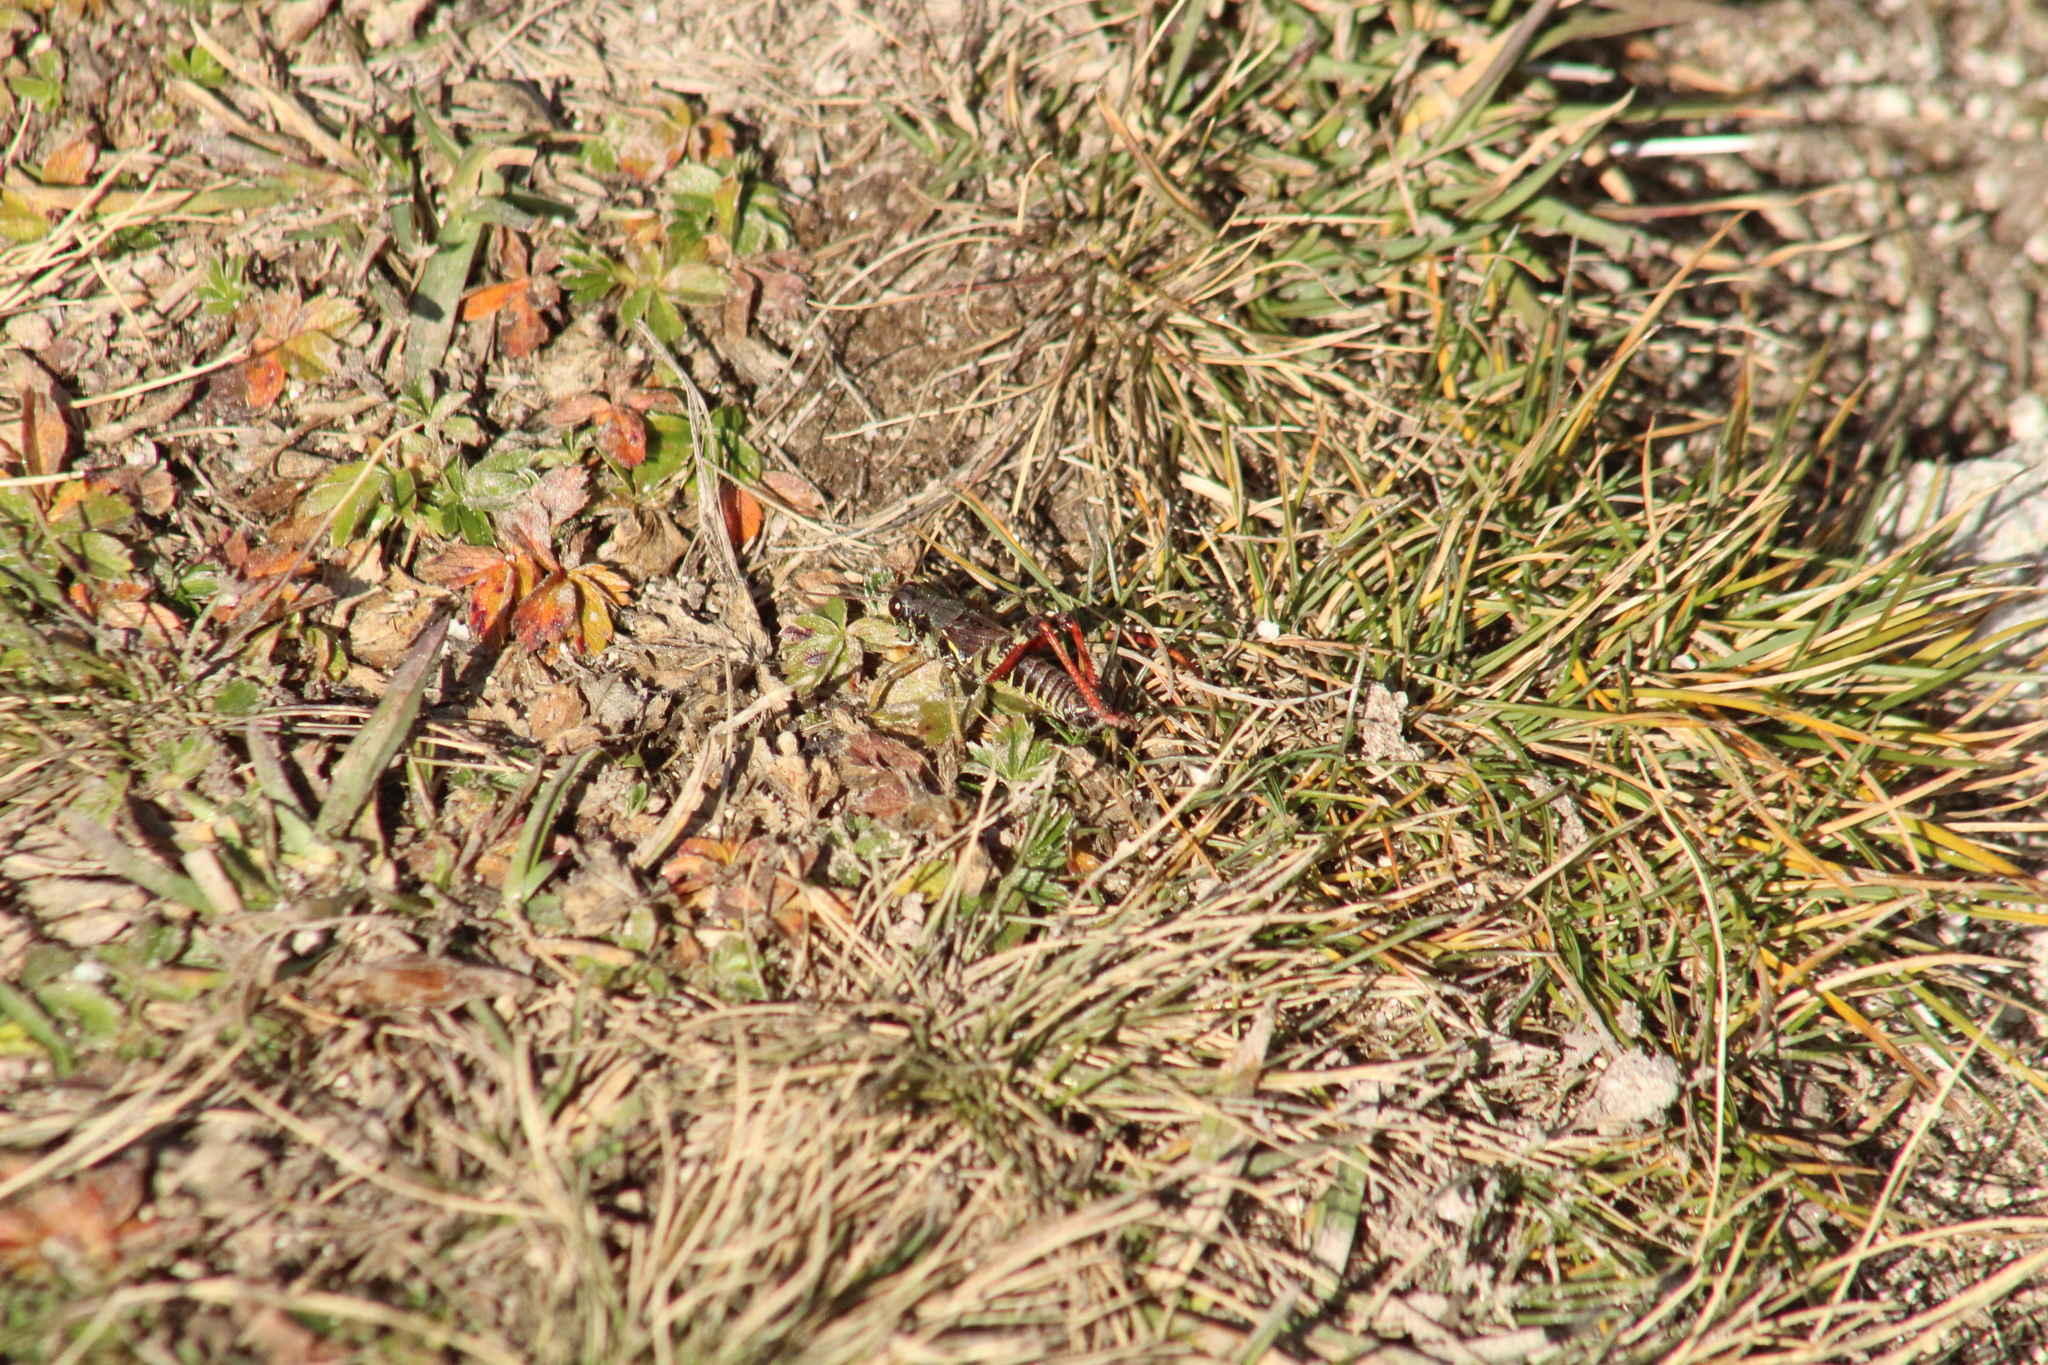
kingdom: Animalia
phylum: Arthropoda
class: Insecta
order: Orthoptera
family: Acrididae
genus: Bohemanella
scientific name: Bohemanella frigida
